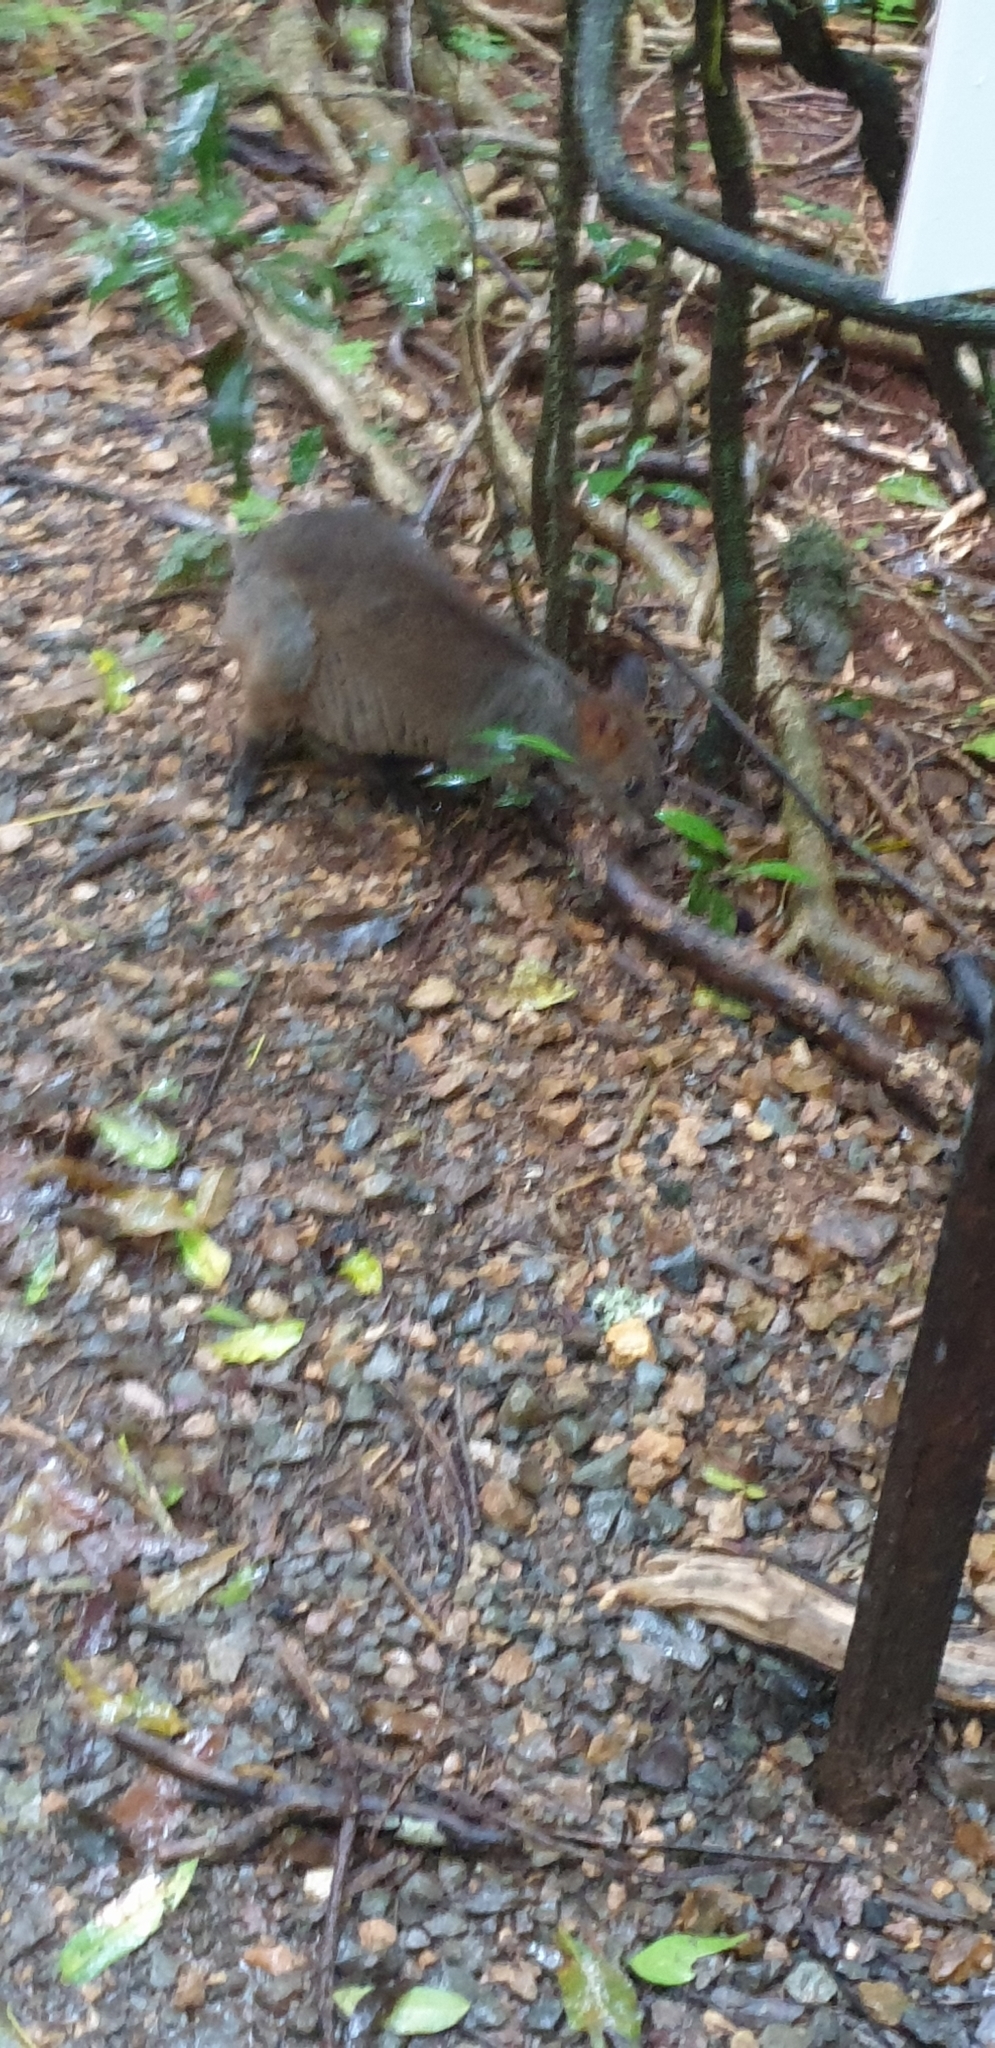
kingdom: Animalia
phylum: Chordata
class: Mammalia
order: Diprotodontia
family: Macropodidae
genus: Thylogale
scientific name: Thylogale stigmatica
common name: Red-legged pademelon
